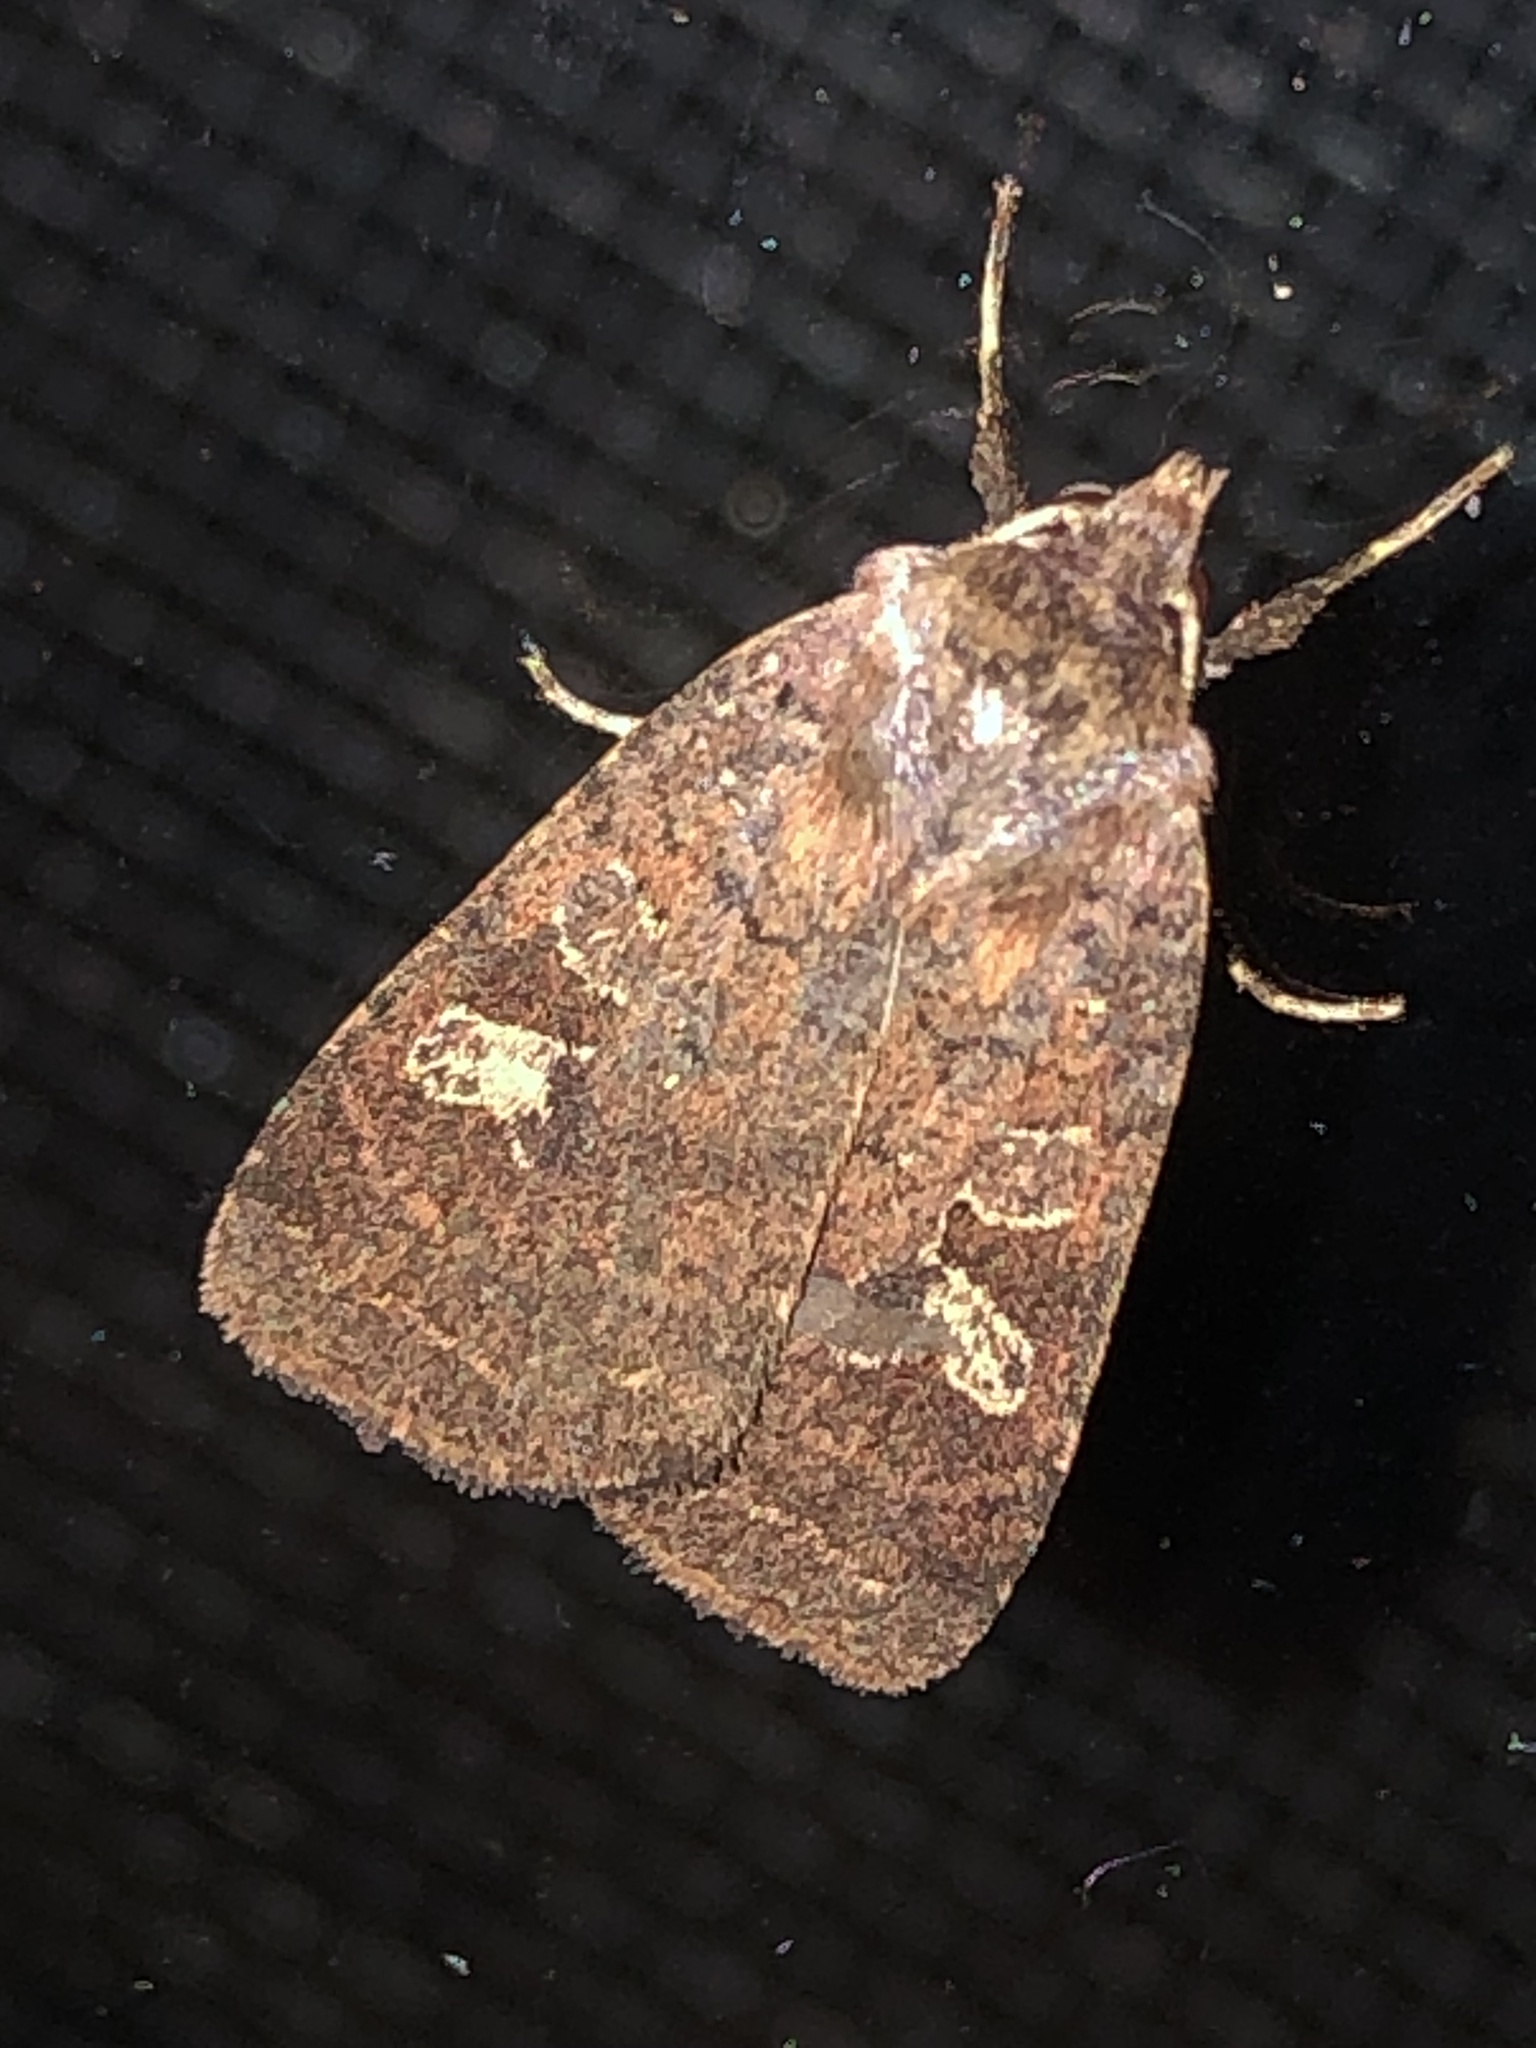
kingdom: Animalia
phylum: Arthropoda
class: Insecta
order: Lepidoptera
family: Noctuidae
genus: Diarsia
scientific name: Diarsia rubifera
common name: Red dart
